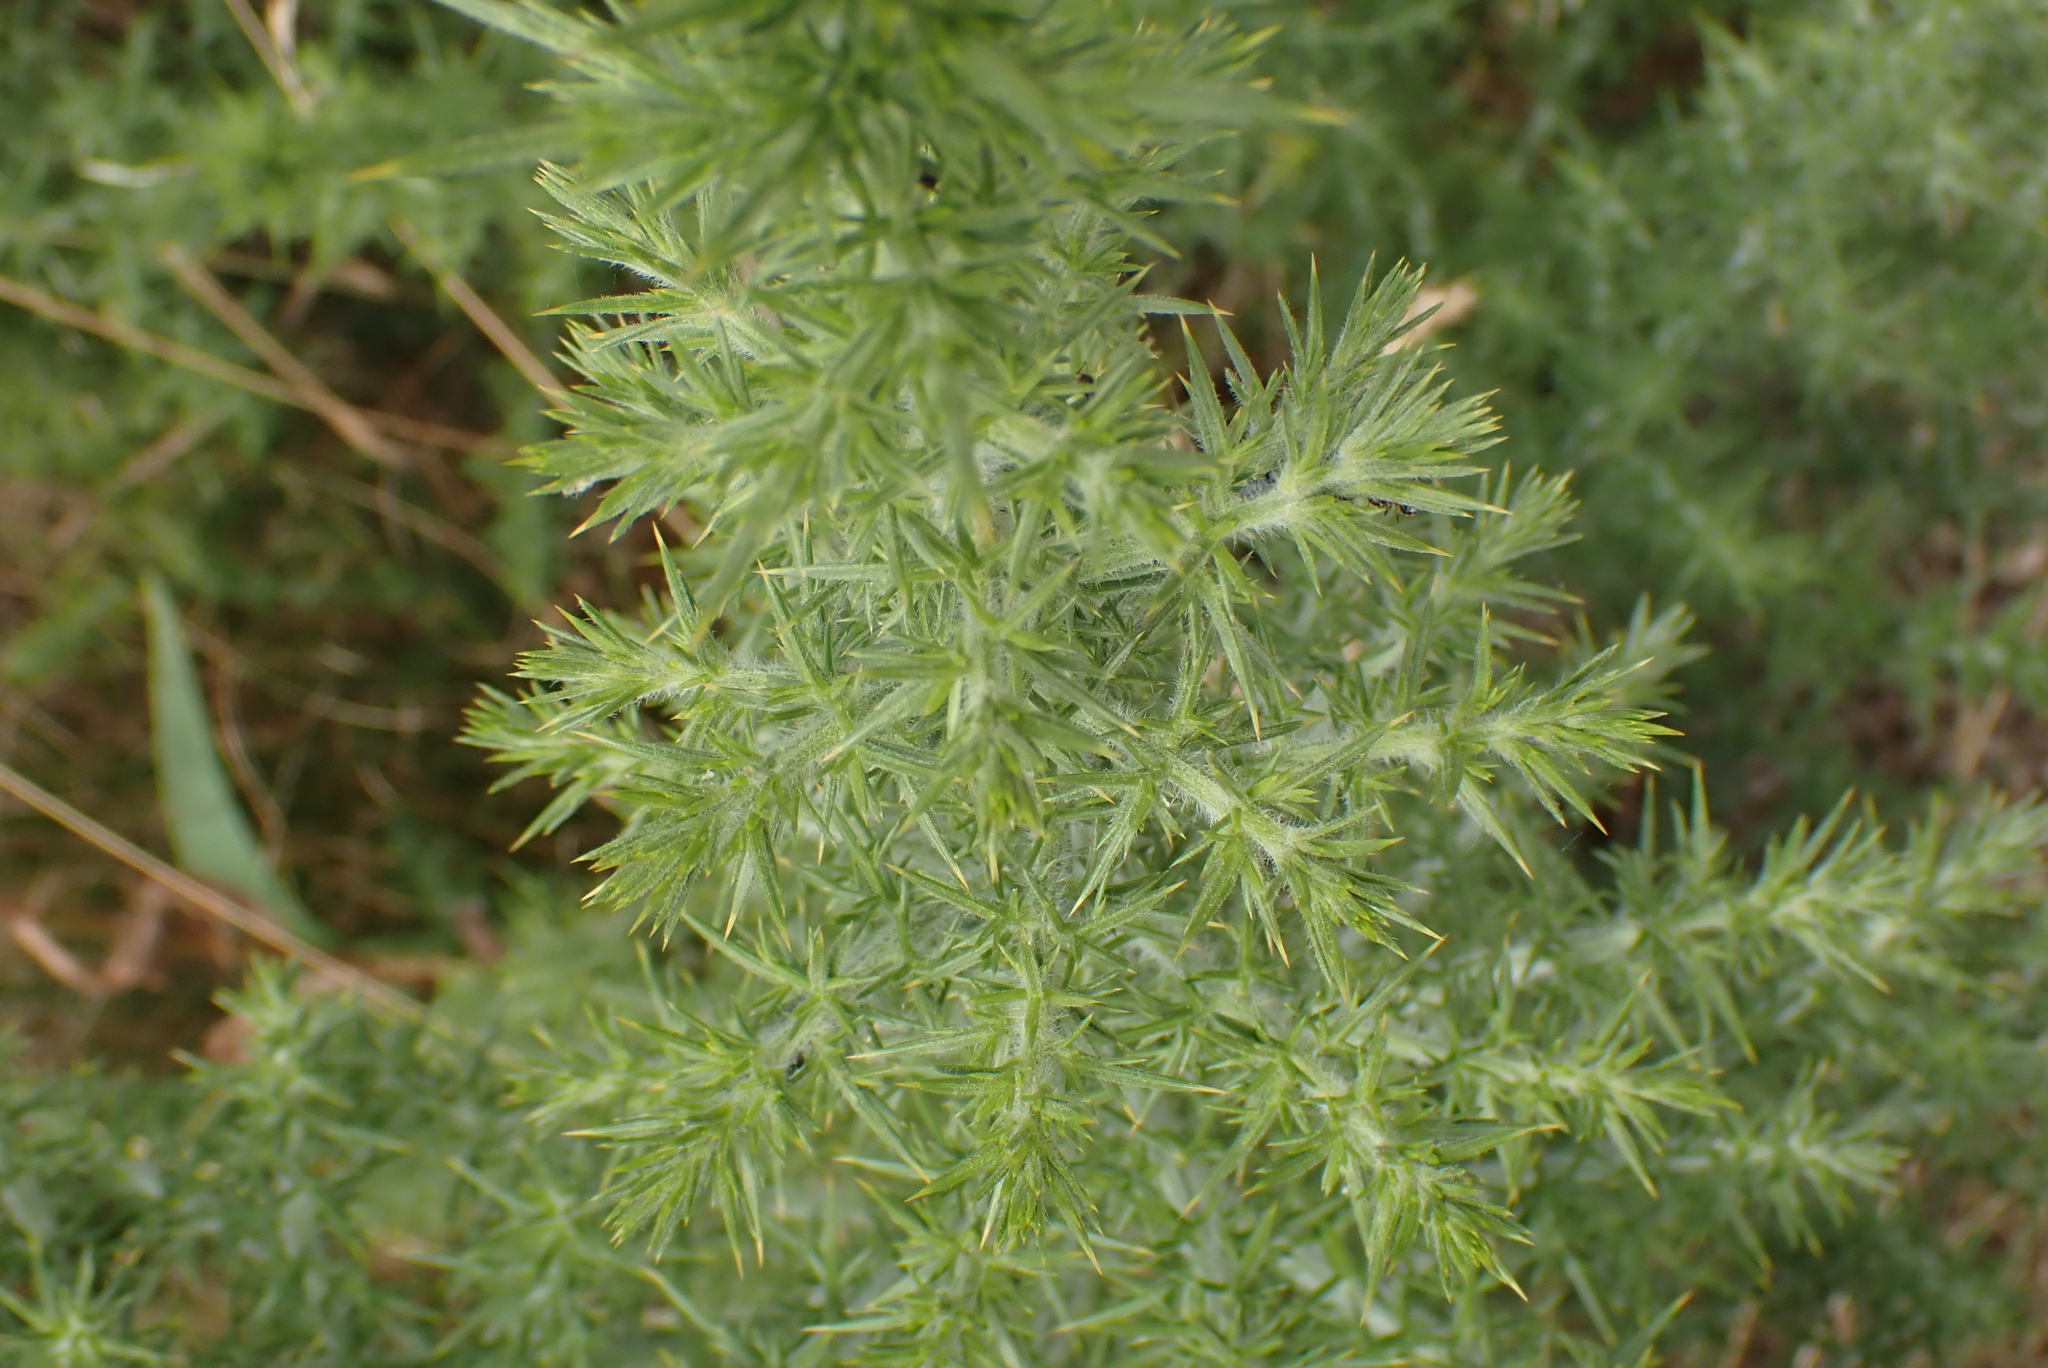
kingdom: Plantae
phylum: Tracheophyta
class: Magnoliopsida
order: Fabales
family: Fabaceae
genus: Ulex
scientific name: Ulex europaeus
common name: Common gorse
